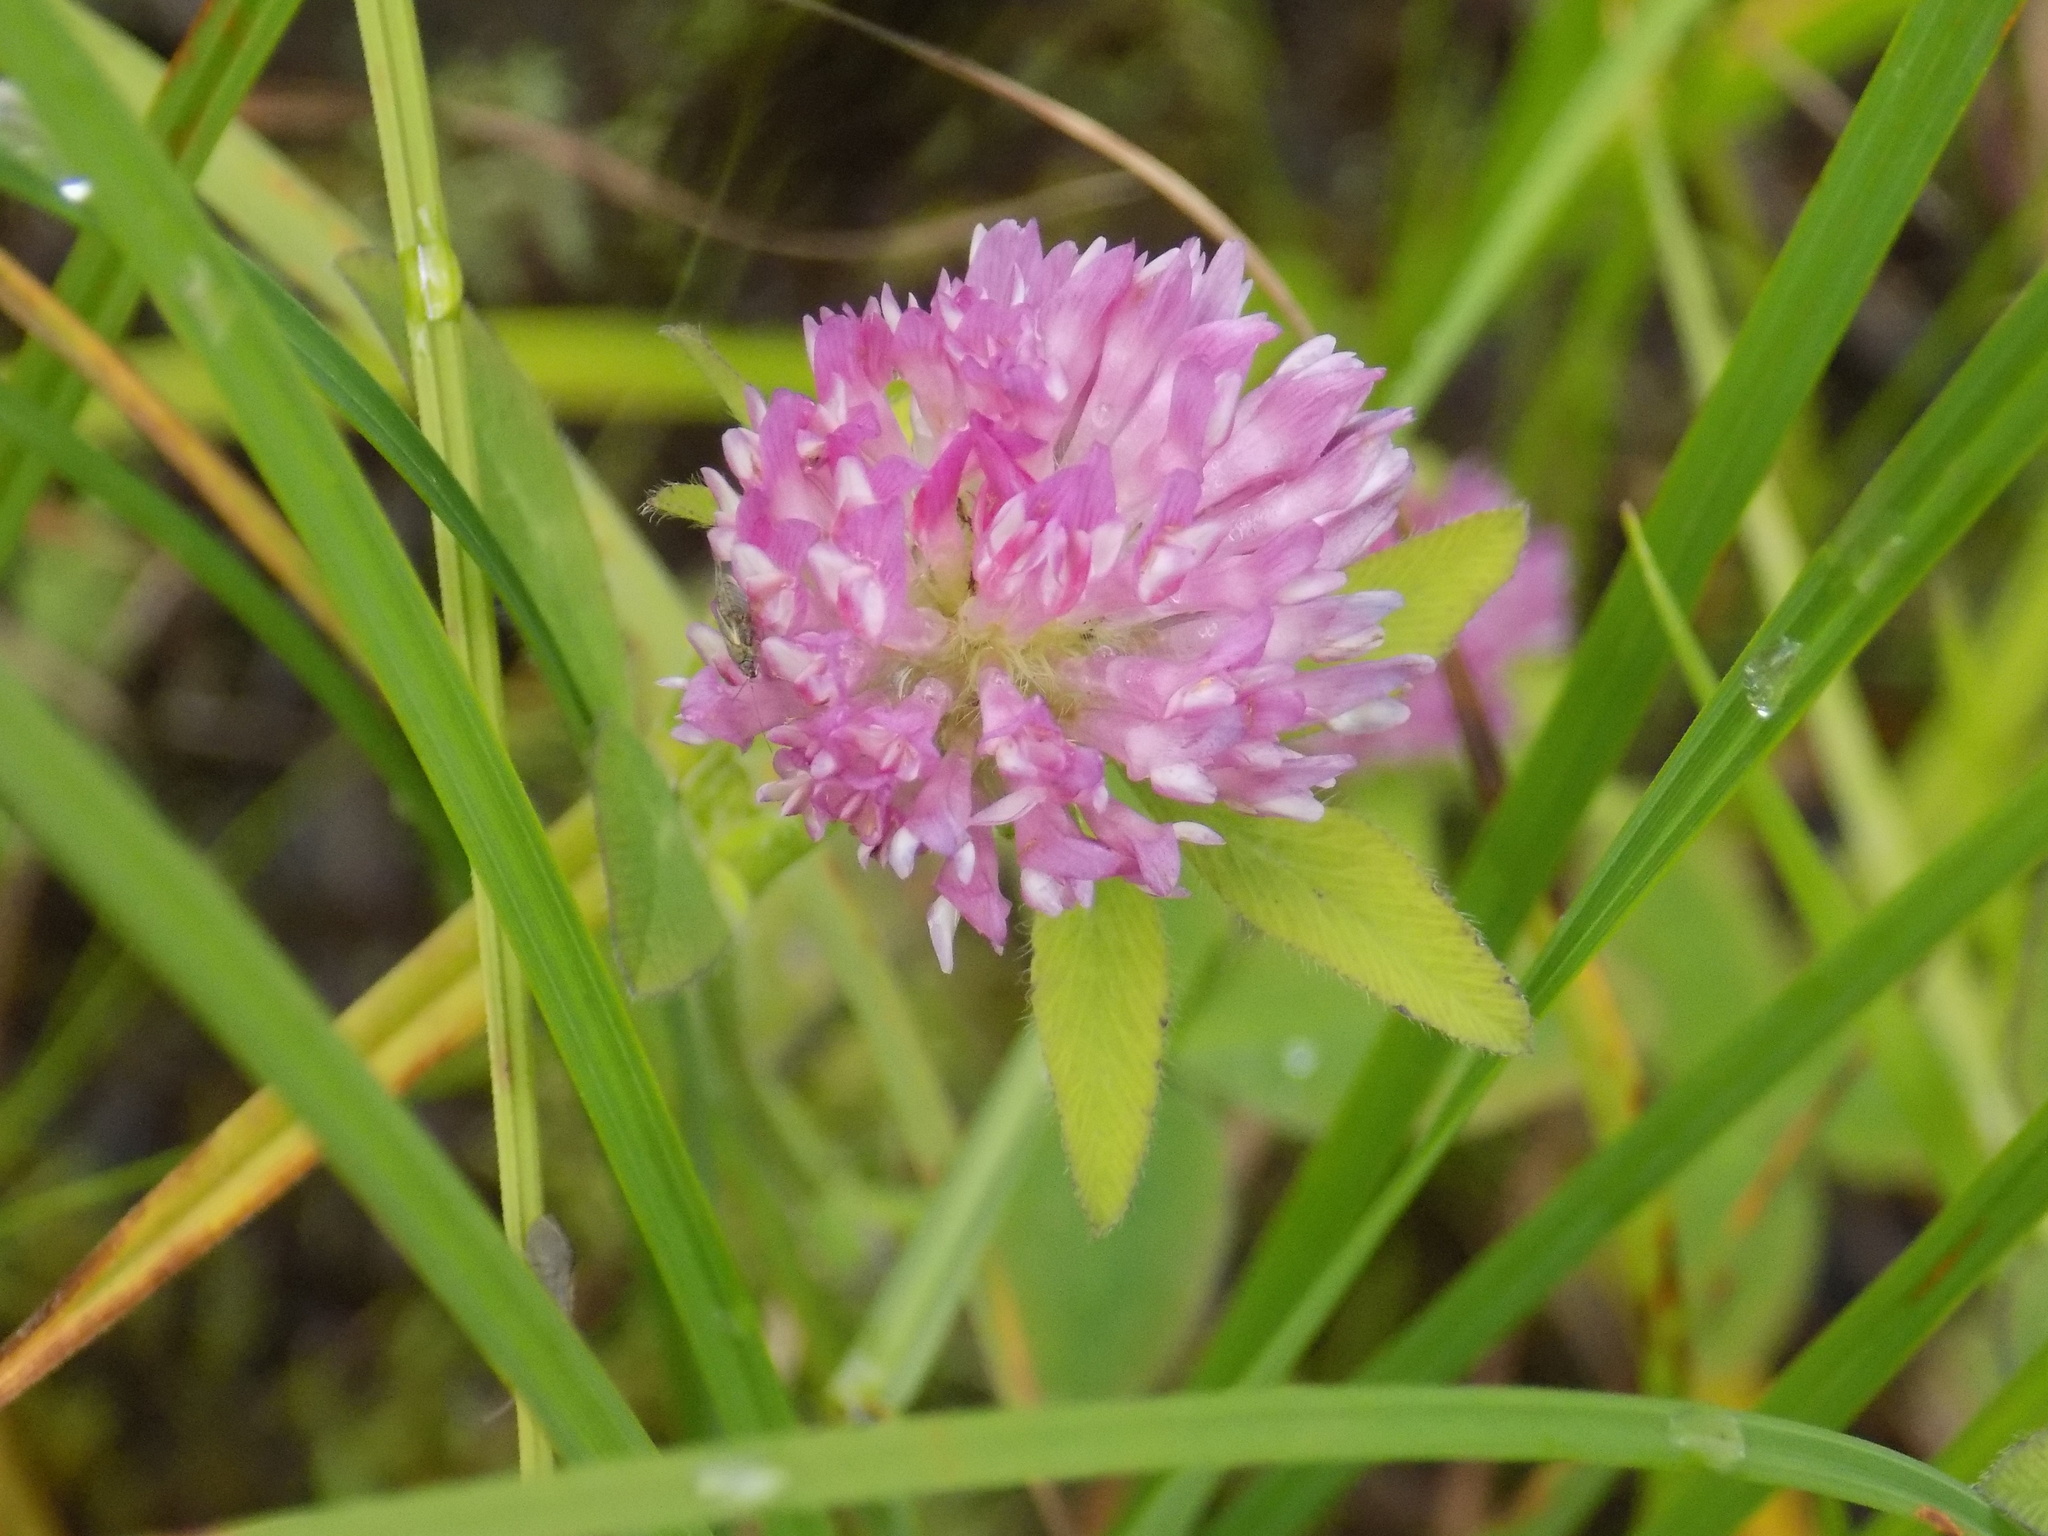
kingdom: Plantae
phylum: Tracheophyta
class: Magnoliopsida
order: Fabales
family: Fabaceae
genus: Trifolium
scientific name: Trifolium pratense
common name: Red clover
